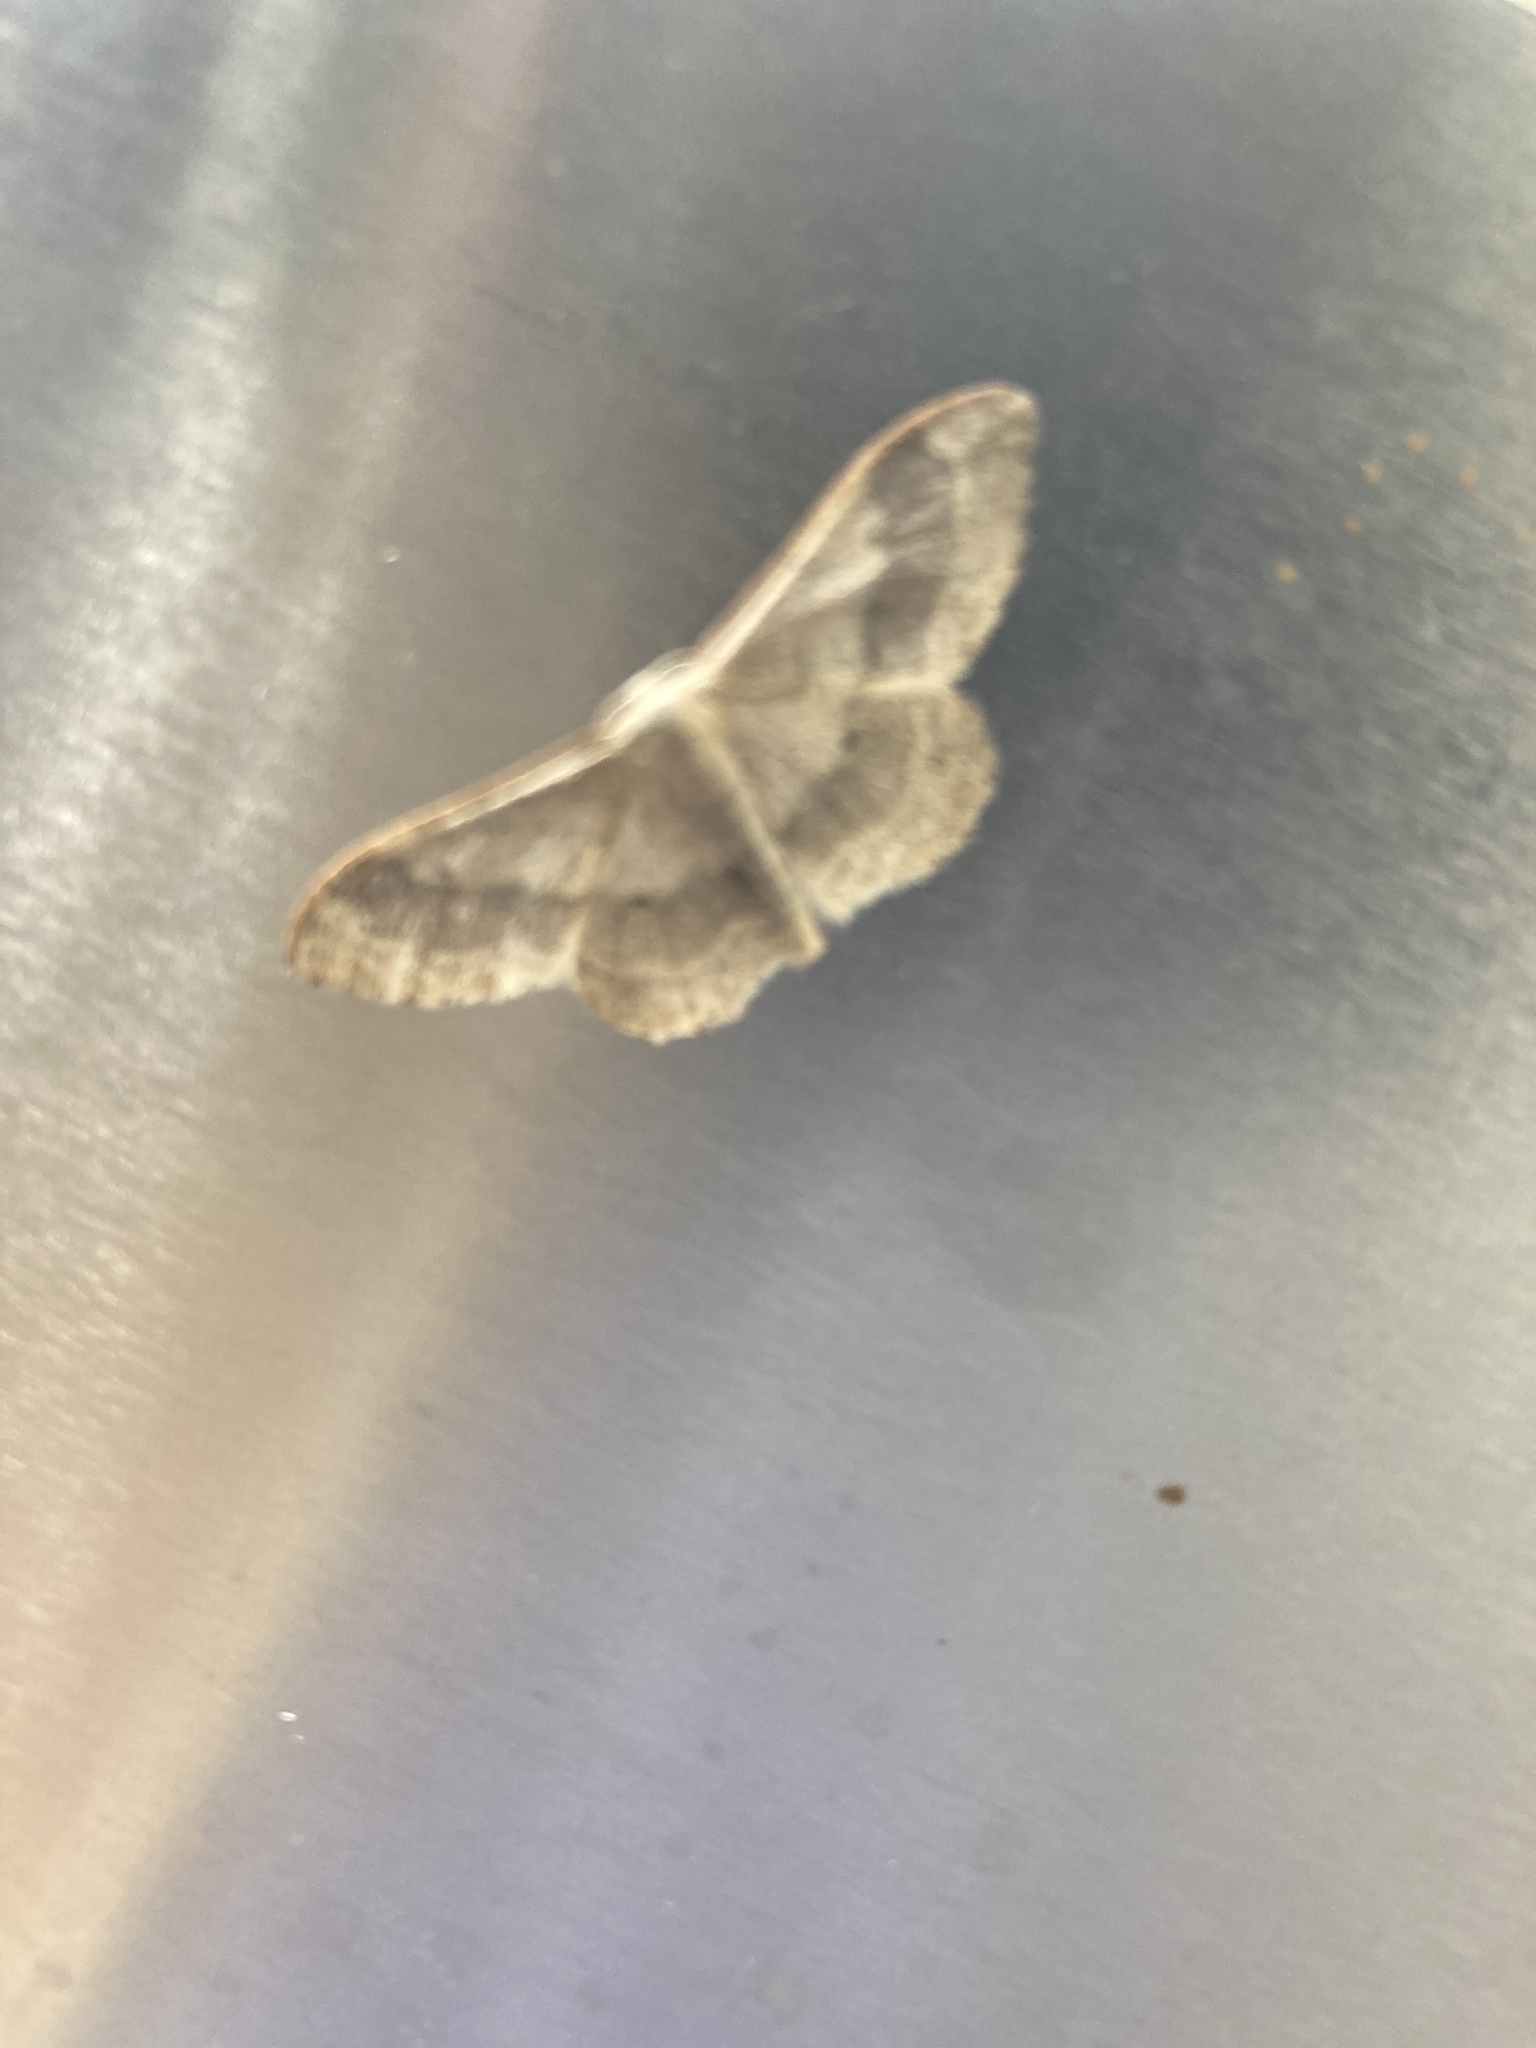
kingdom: Animalia
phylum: Arthropoda
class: Insecta
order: Lepidoptera
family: Geometridae
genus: Idaea
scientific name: Idaea aversata
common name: Riband wave
